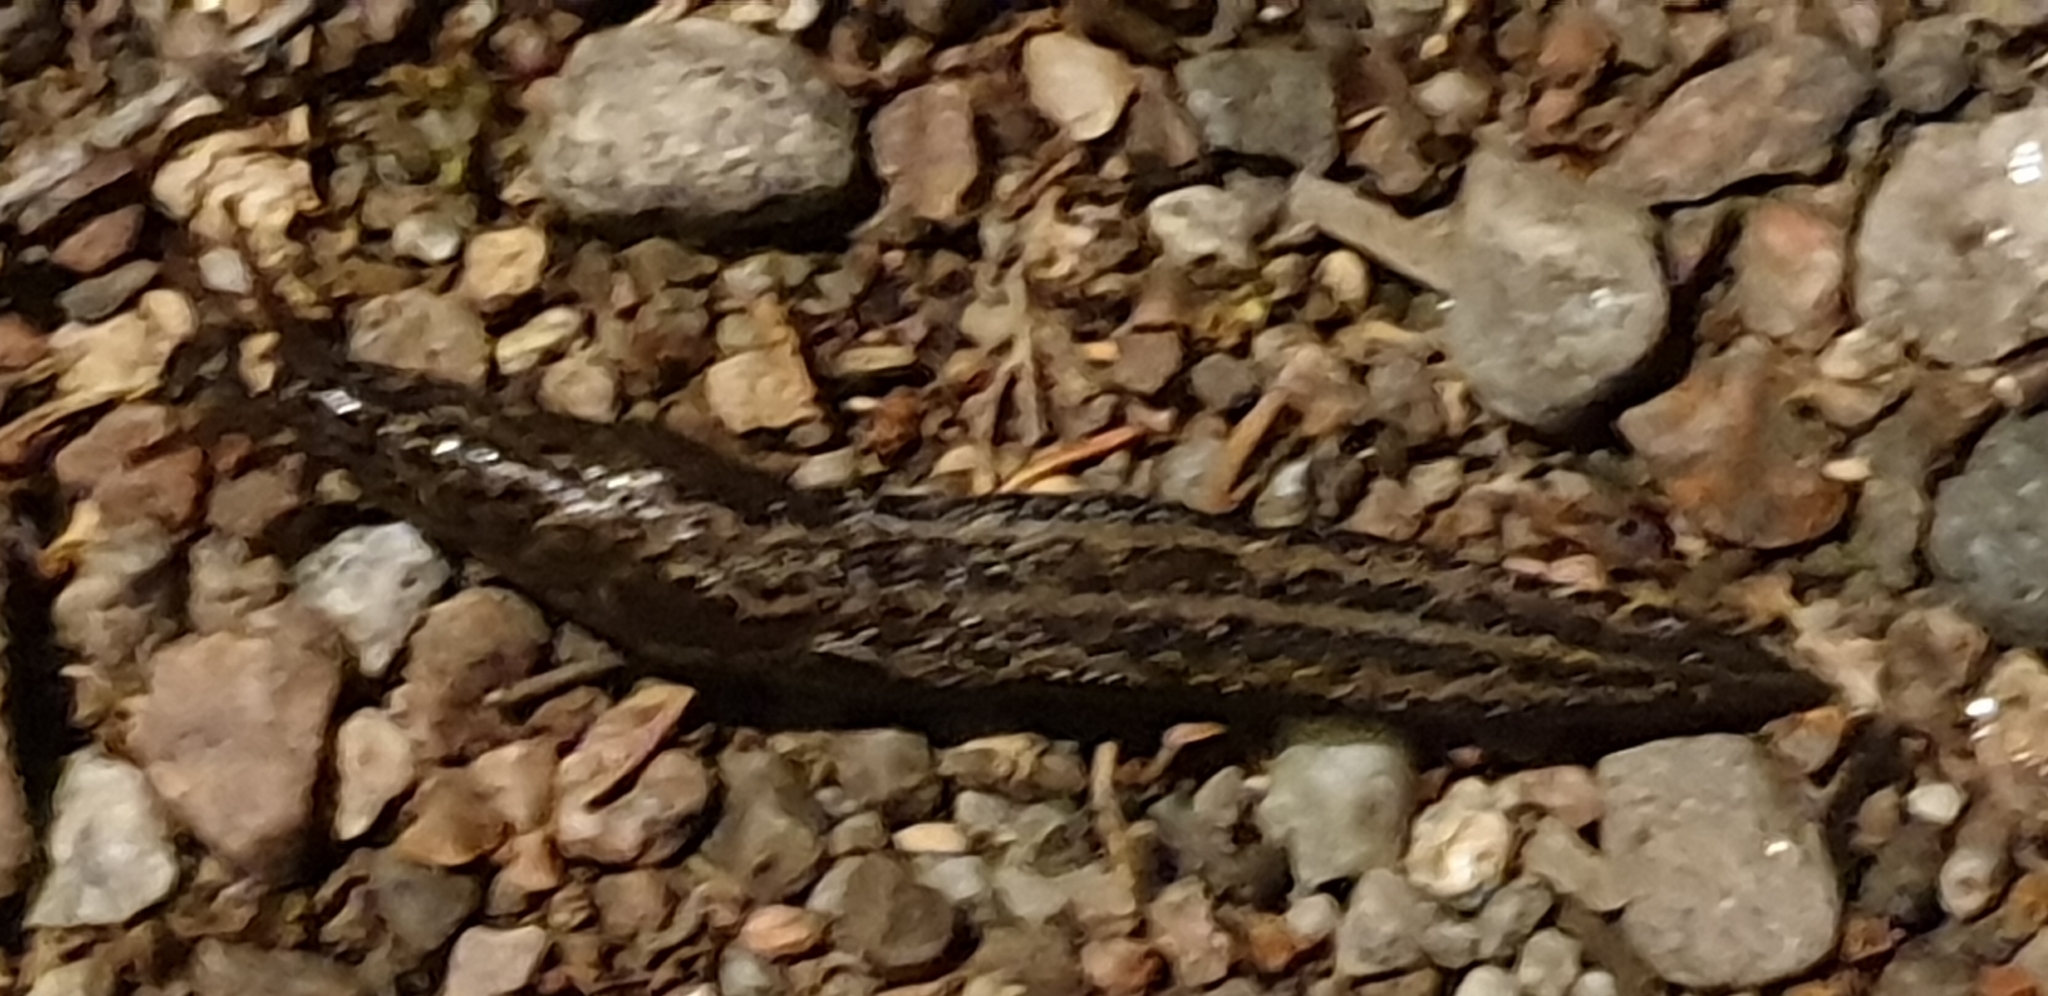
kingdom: Animalia
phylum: Mollusca
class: Gastropoda
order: Stylommatophora
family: Limacidae
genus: Limax
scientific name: Limax maximus
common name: Great grey slug
